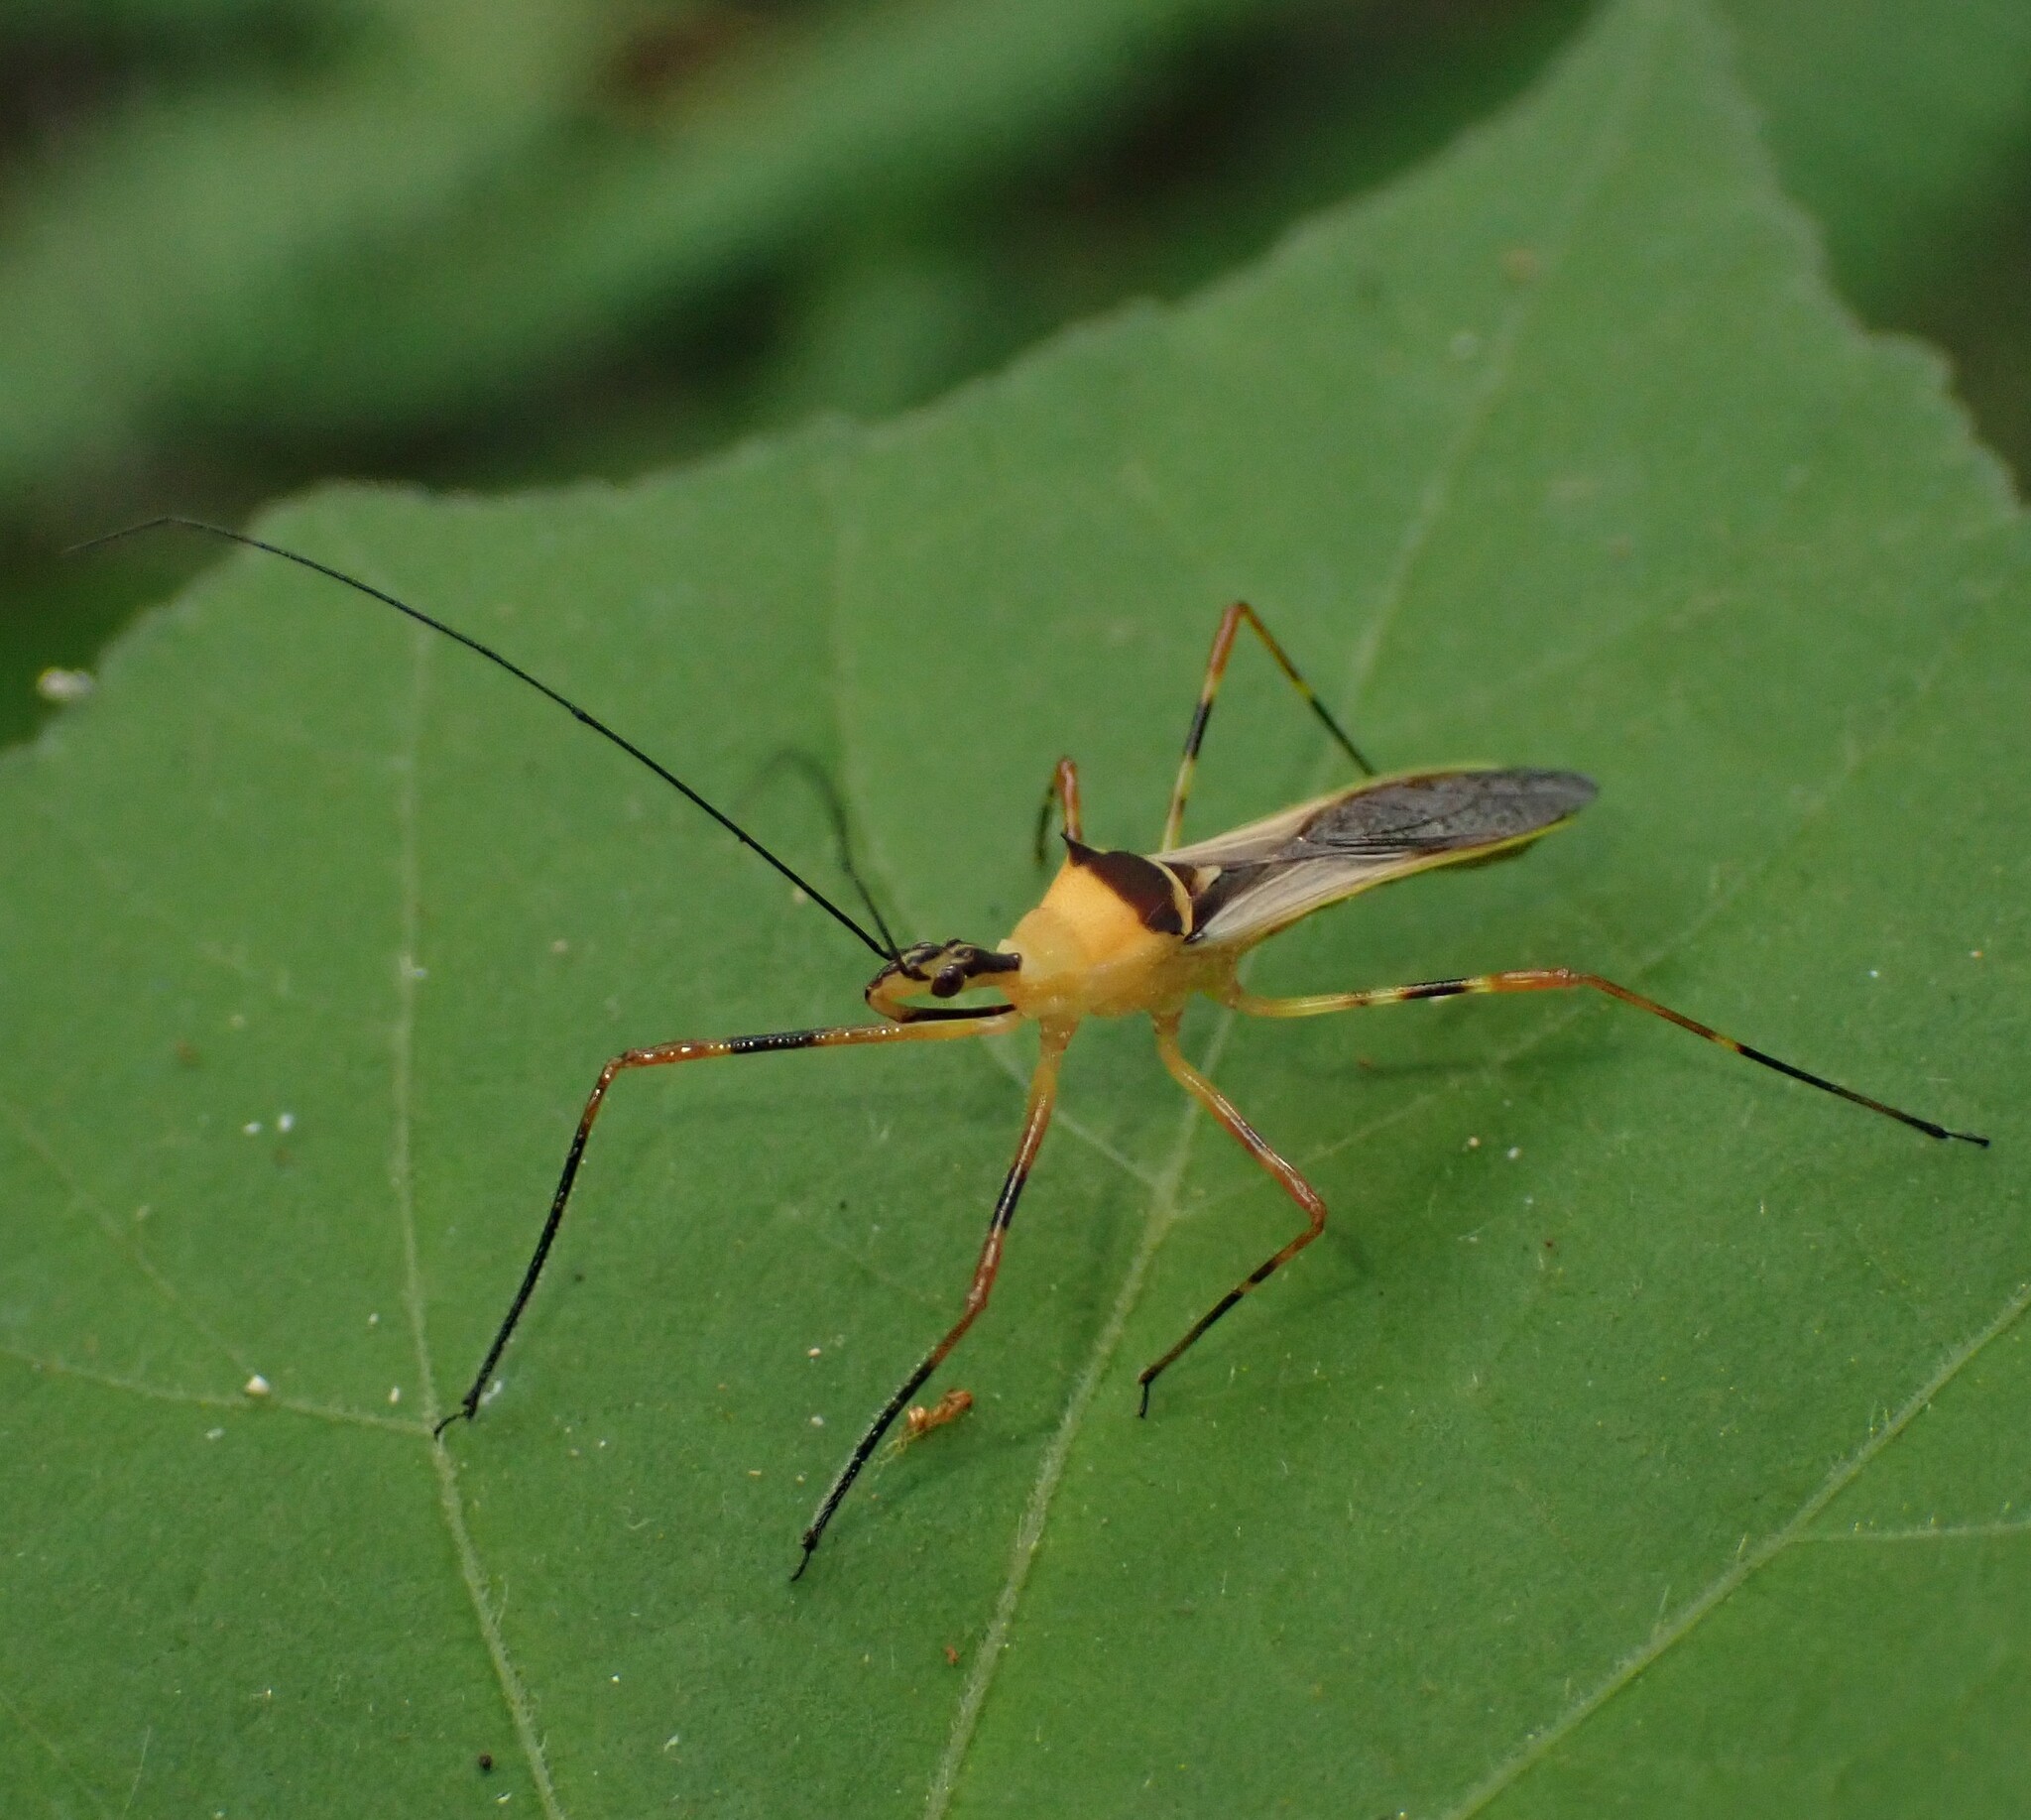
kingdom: Animalia
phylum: Arthropoda
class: Insecta
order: Hemiptera
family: Reduviidae
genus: Zelus
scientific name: Zelus versicolor
